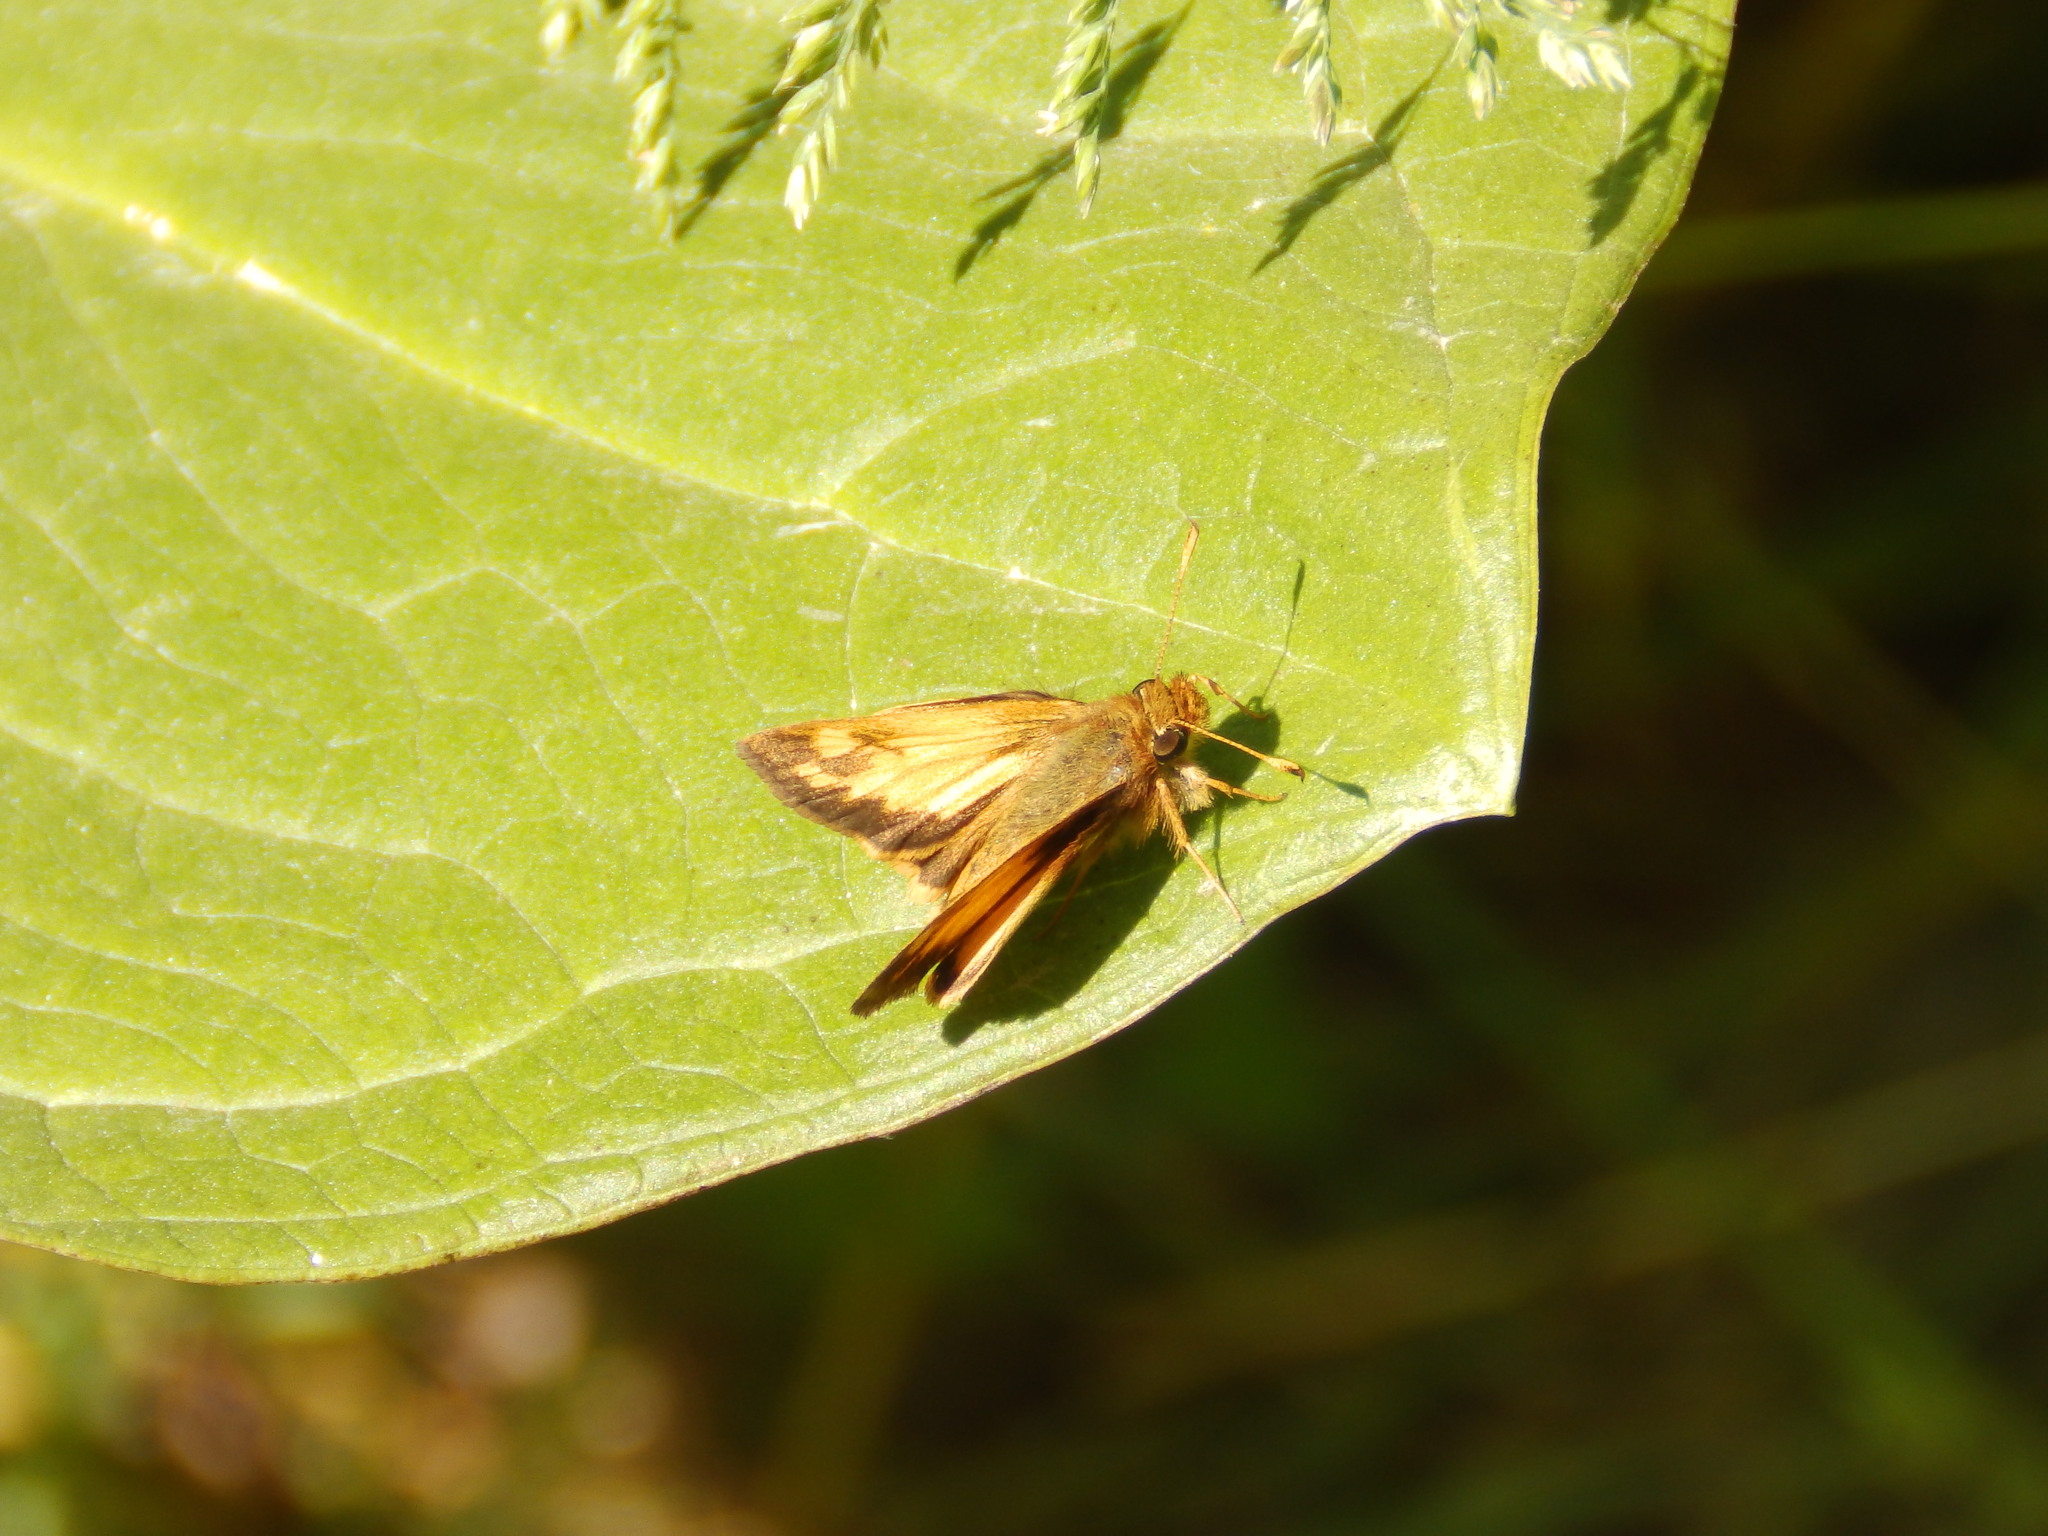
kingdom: Animalia
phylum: Arthropoda
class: Insecta
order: Lepidoptera
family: Hesperiidae
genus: Lon
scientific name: Lon zabulon
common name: Zabulon skipper
